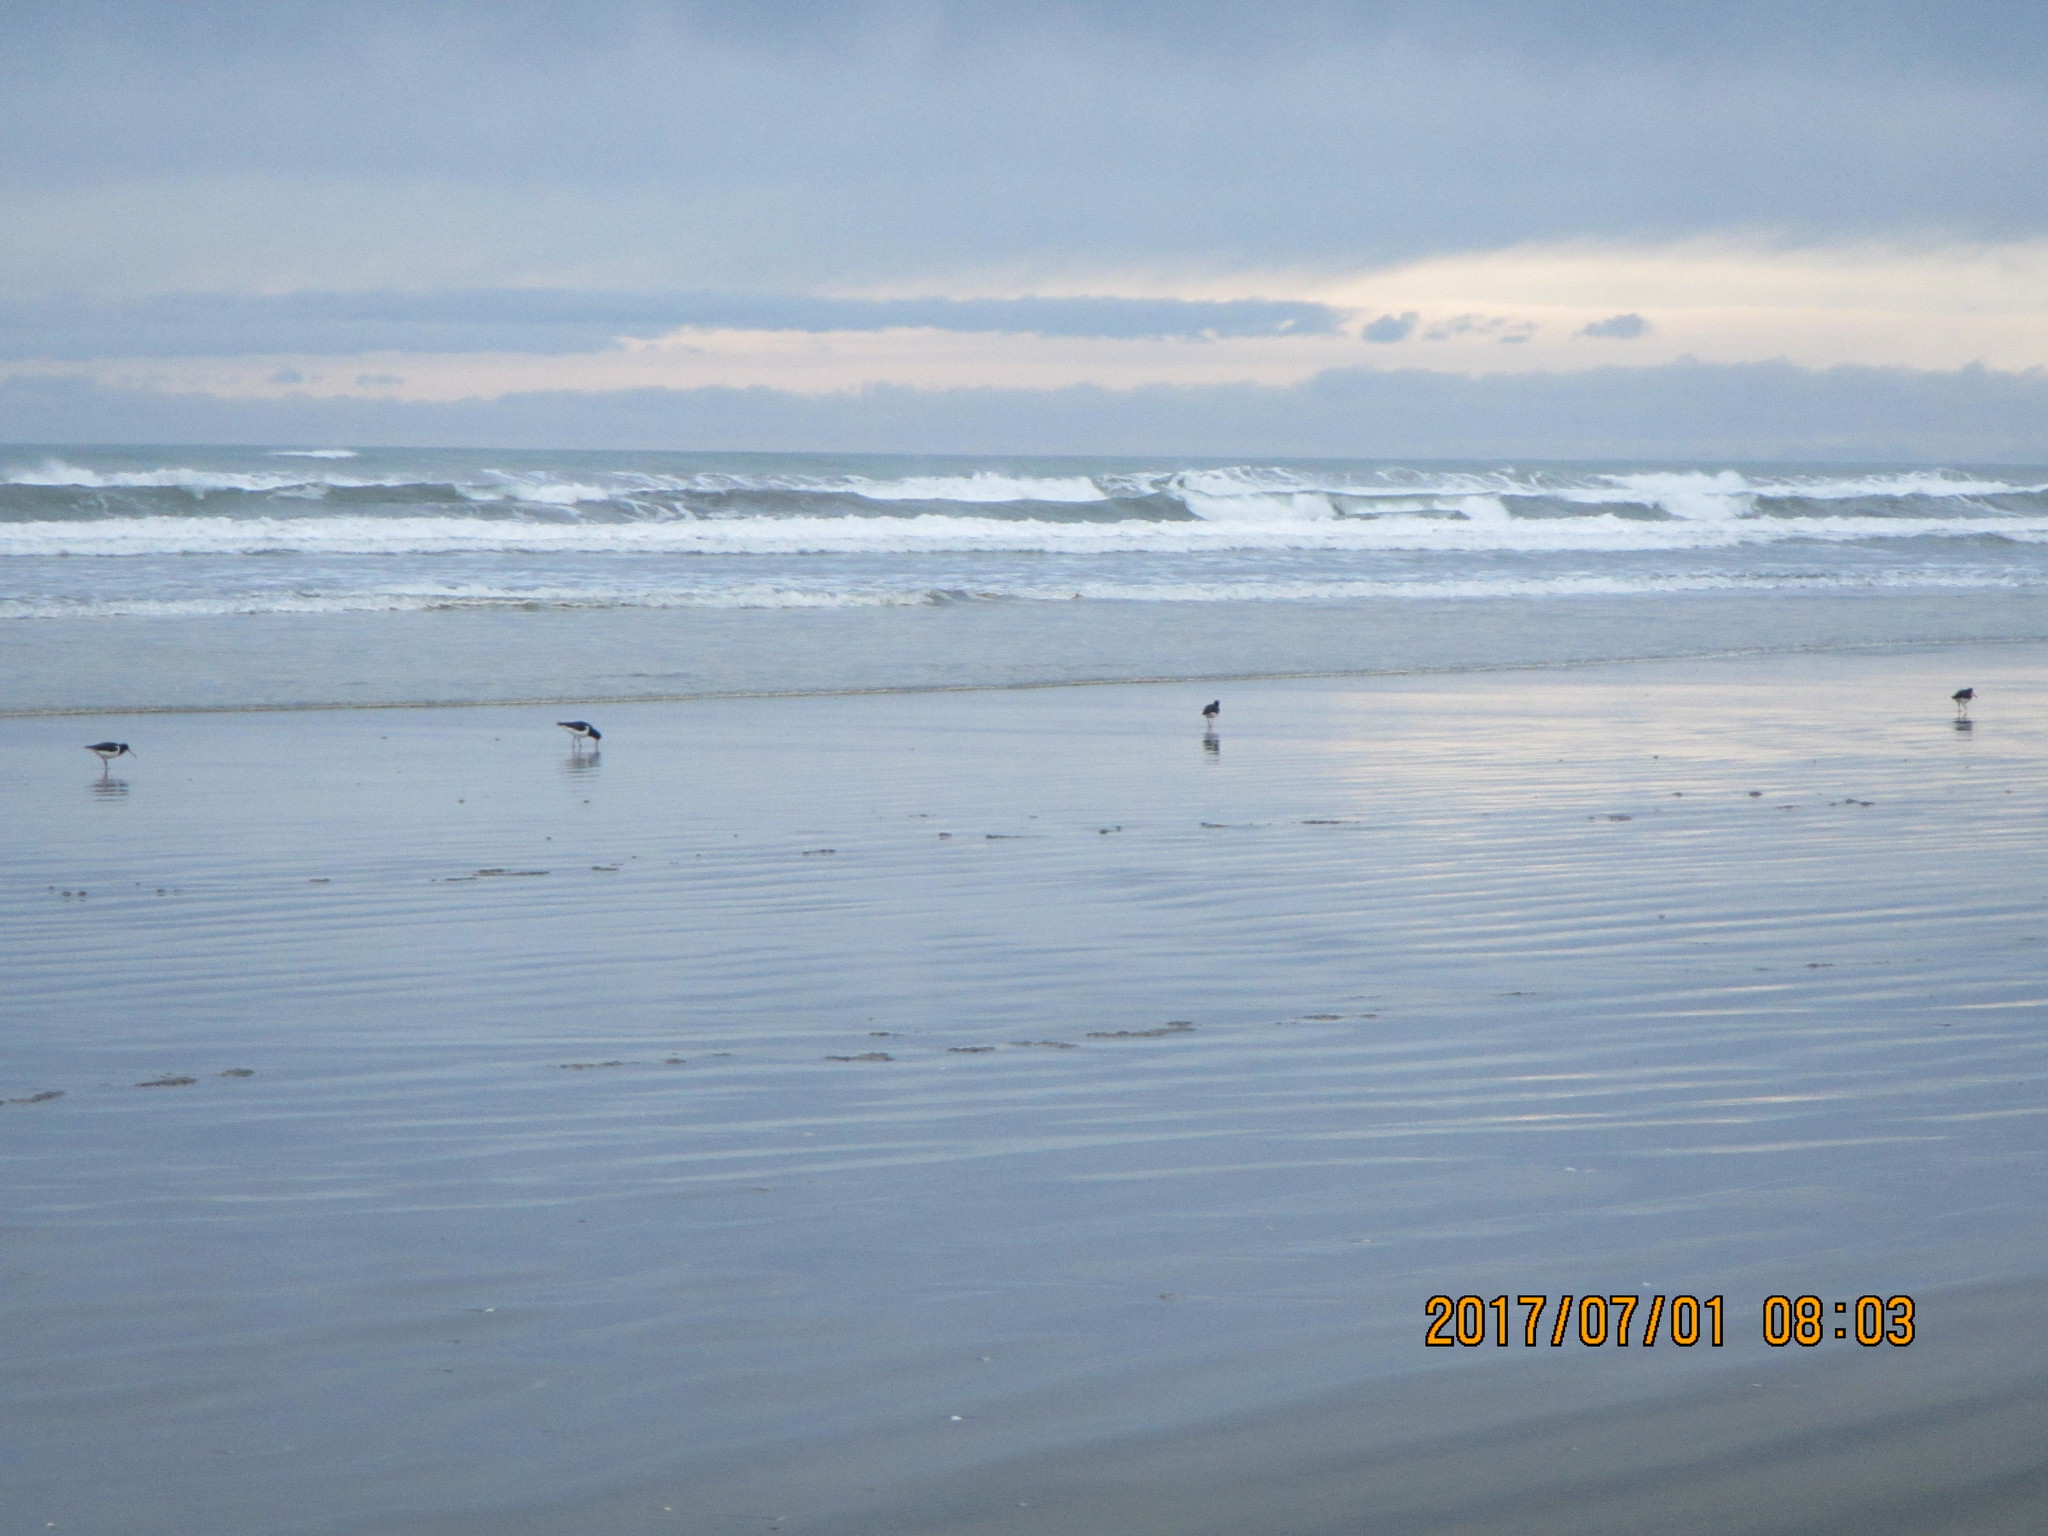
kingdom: Animalia
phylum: Chordata
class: Aves
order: Charadriiformes
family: Haematopodidae
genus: Haematopus
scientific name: Haematopus finschi
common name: South island oystercatcher
